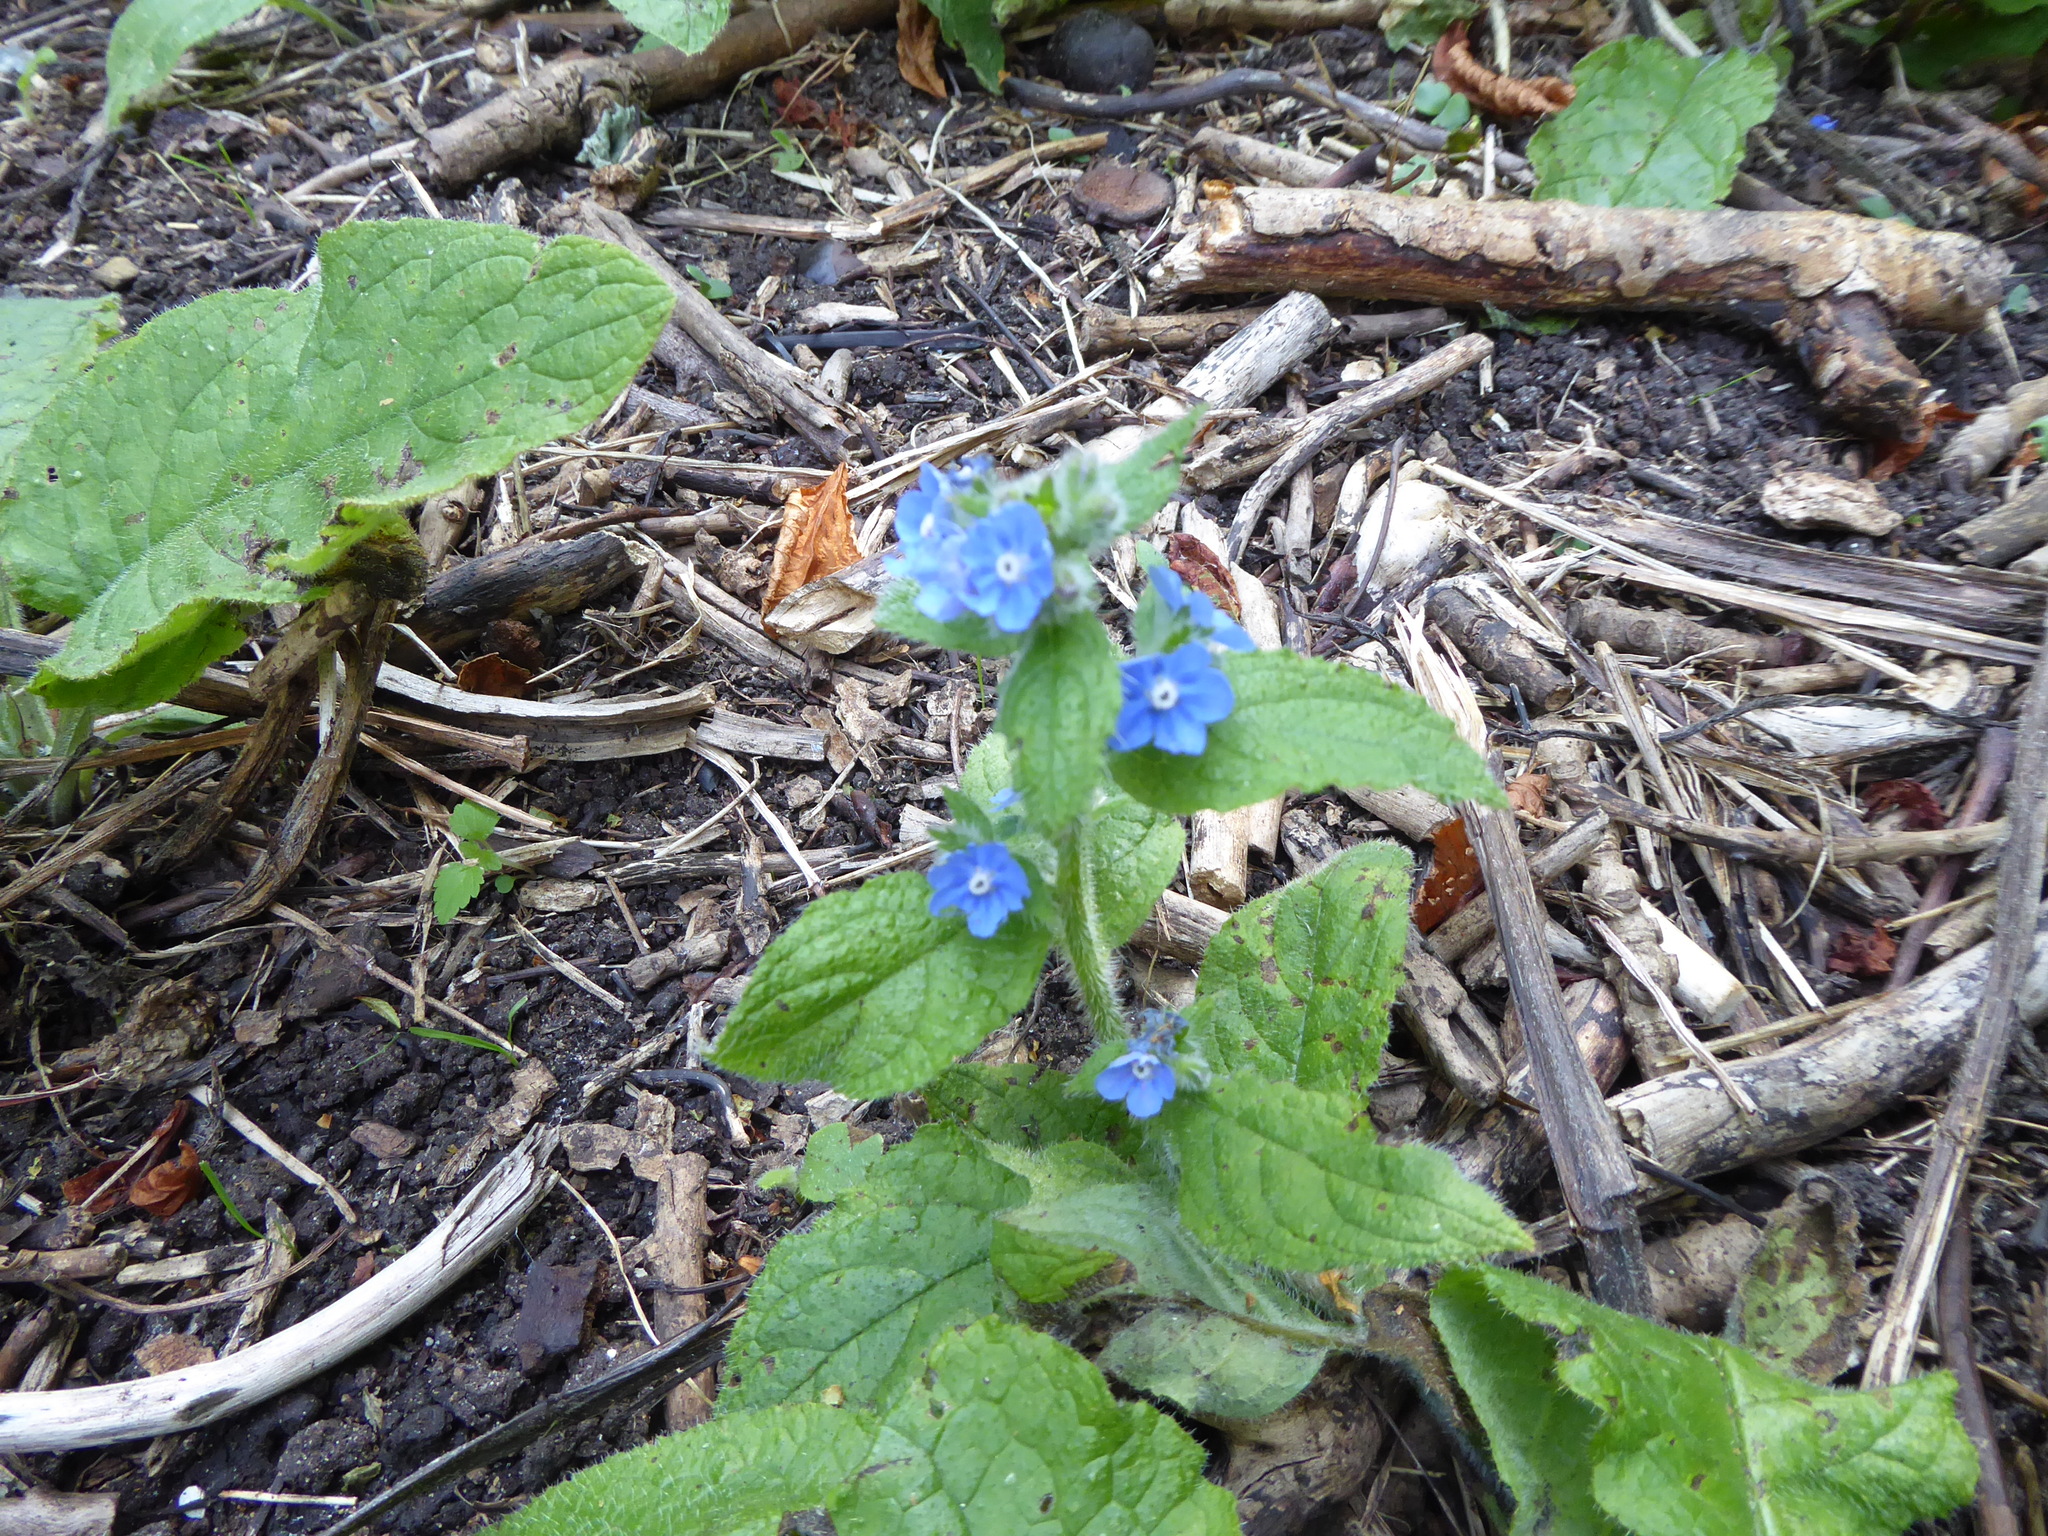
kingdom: Plantae
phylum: Tracheophyta
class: Magnoliopsida
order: Boraginales
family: Boraginaceae
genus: Pentaglottis
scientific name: Pentaglottis sempervirens
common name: Green alkanet
